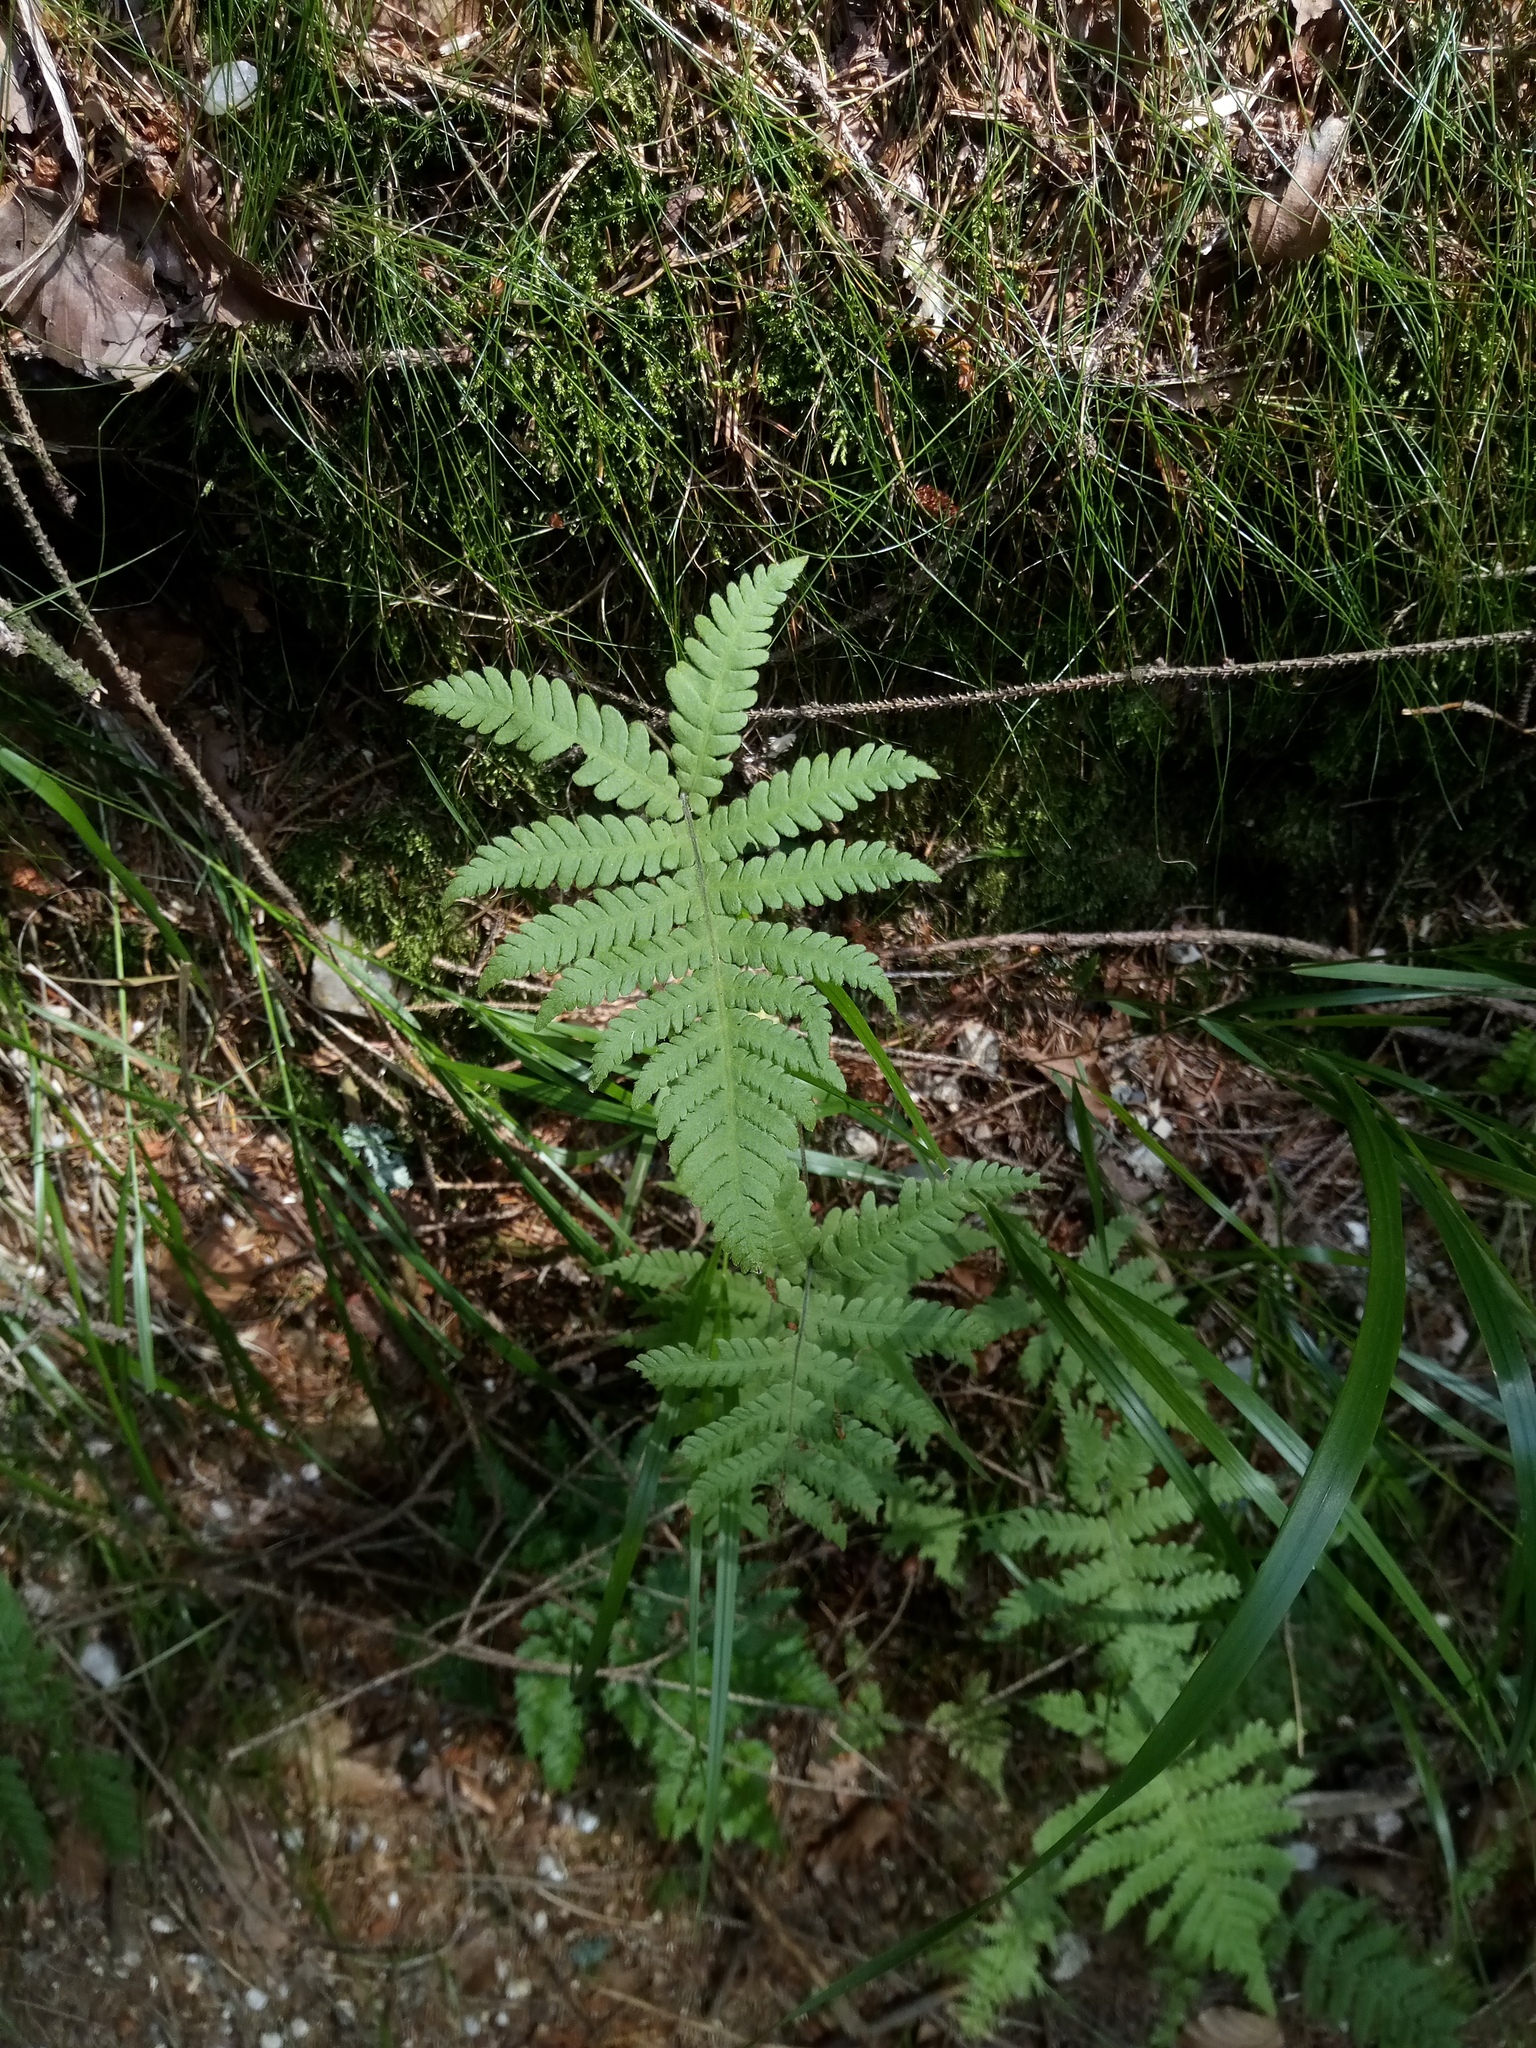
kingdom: Plantae
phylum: Tracheophyta
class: Polypodiopsida
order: Polypodiales
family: Thelypteridaceae
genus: Phegopteris
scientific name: Phegopteris connectilis
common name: Beech fern
